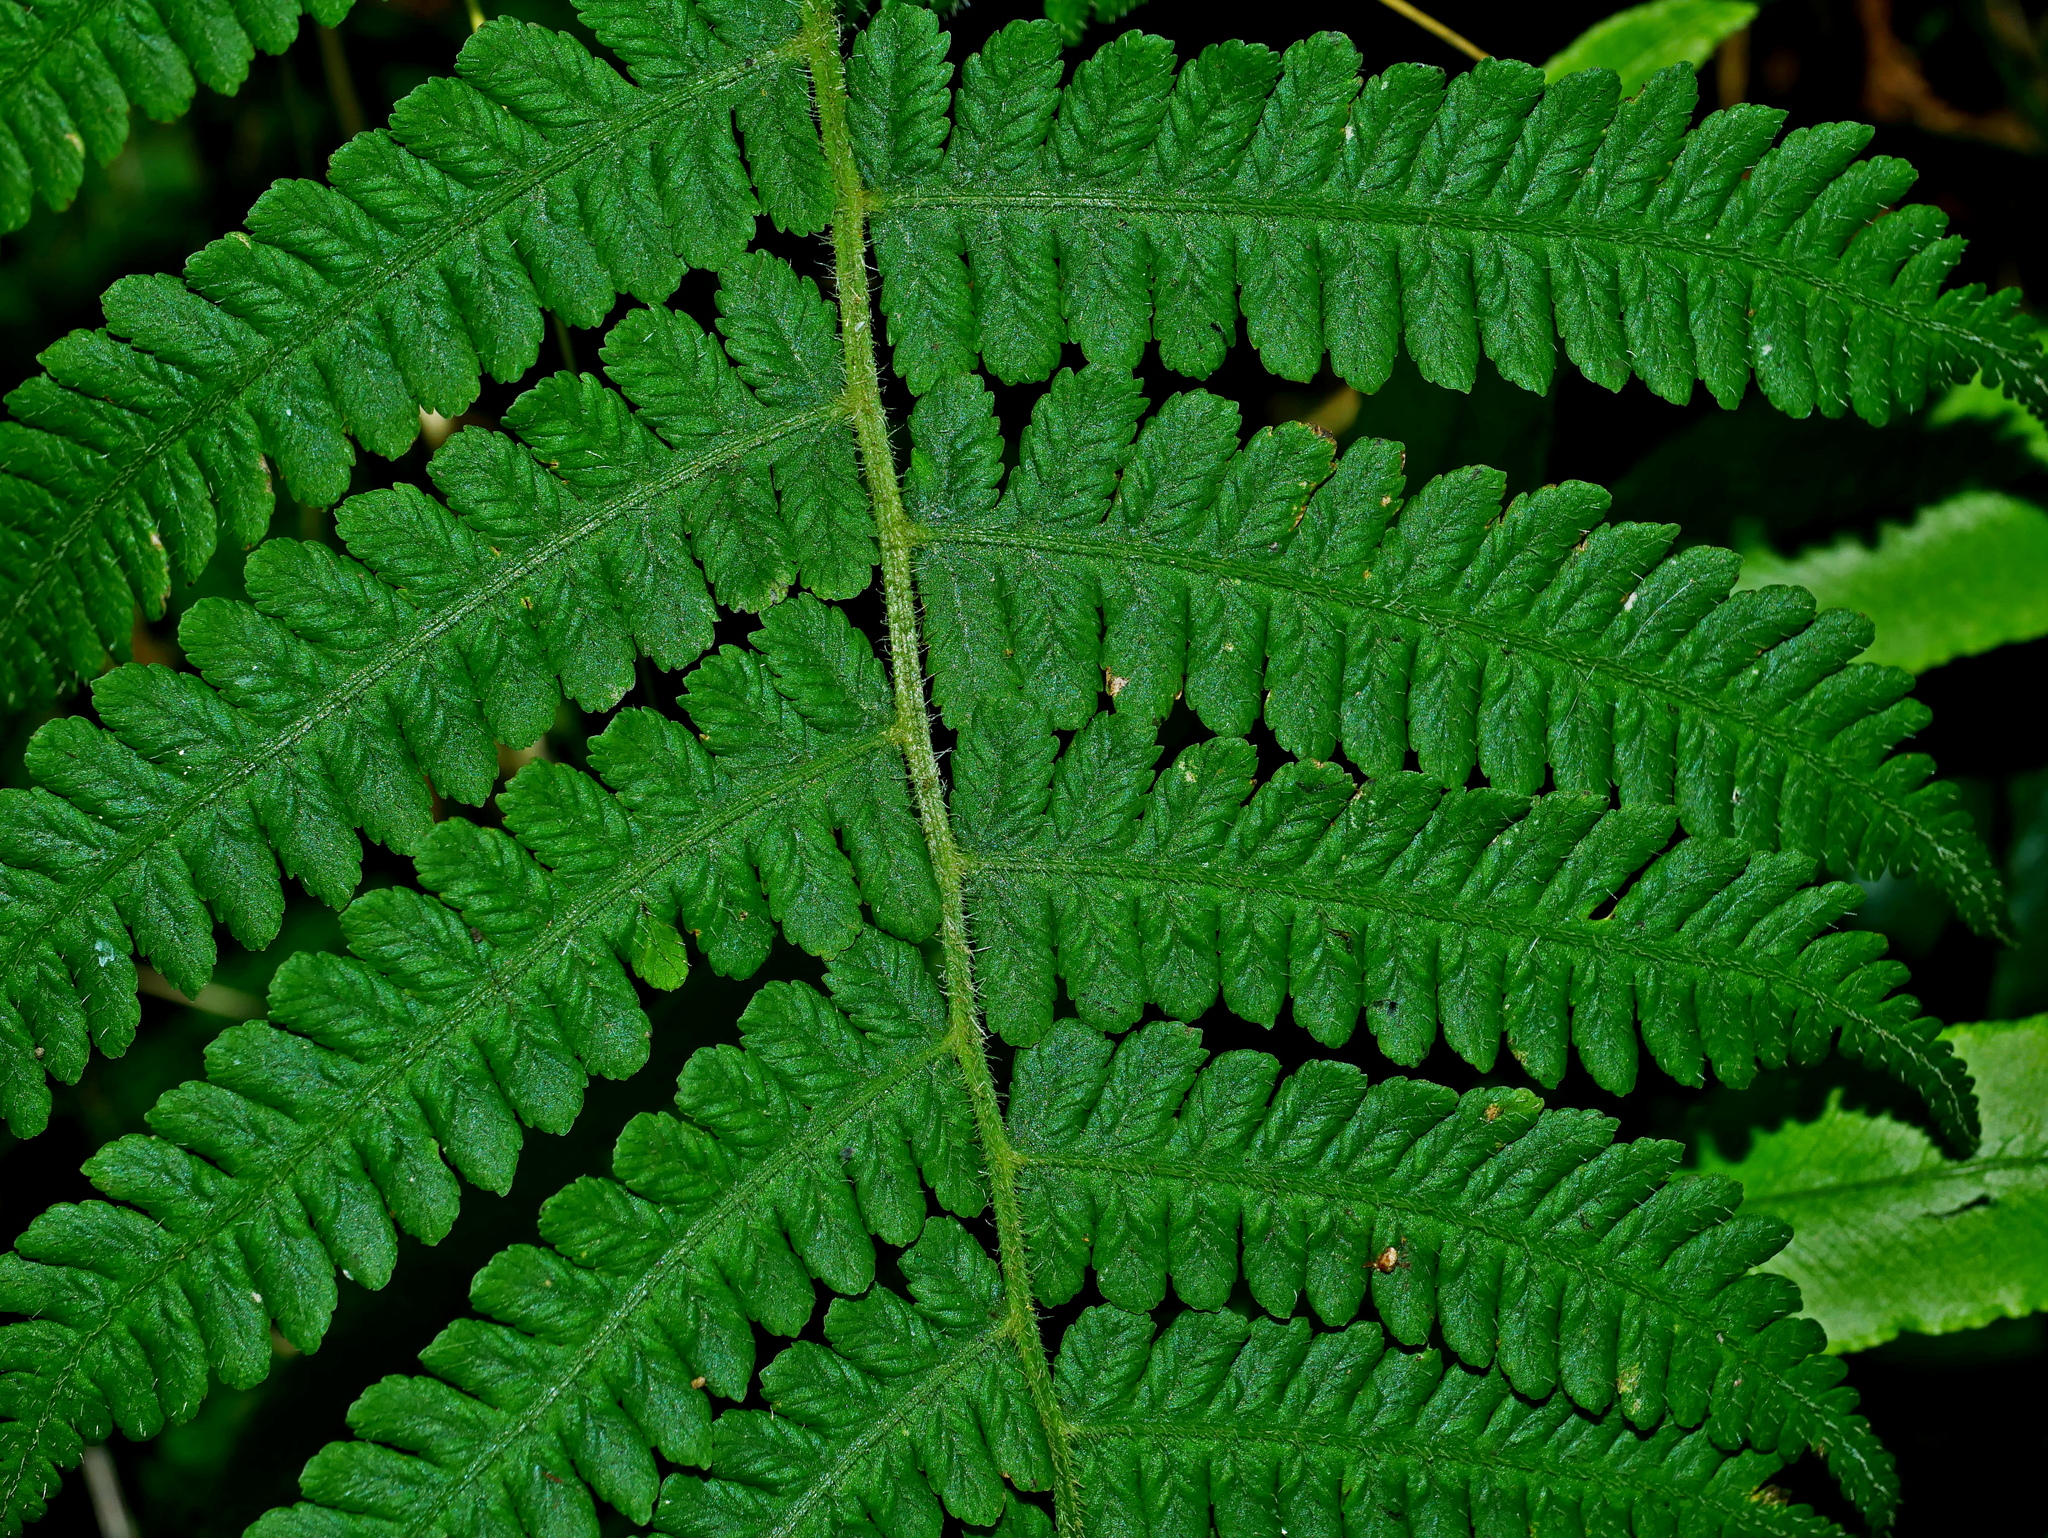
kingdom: Plantae
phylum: Tracheophyta
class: Polypodiopsida
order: Polypodiales
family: Athyriaceae
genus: Deparia
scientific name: Deparia jiulungensis
